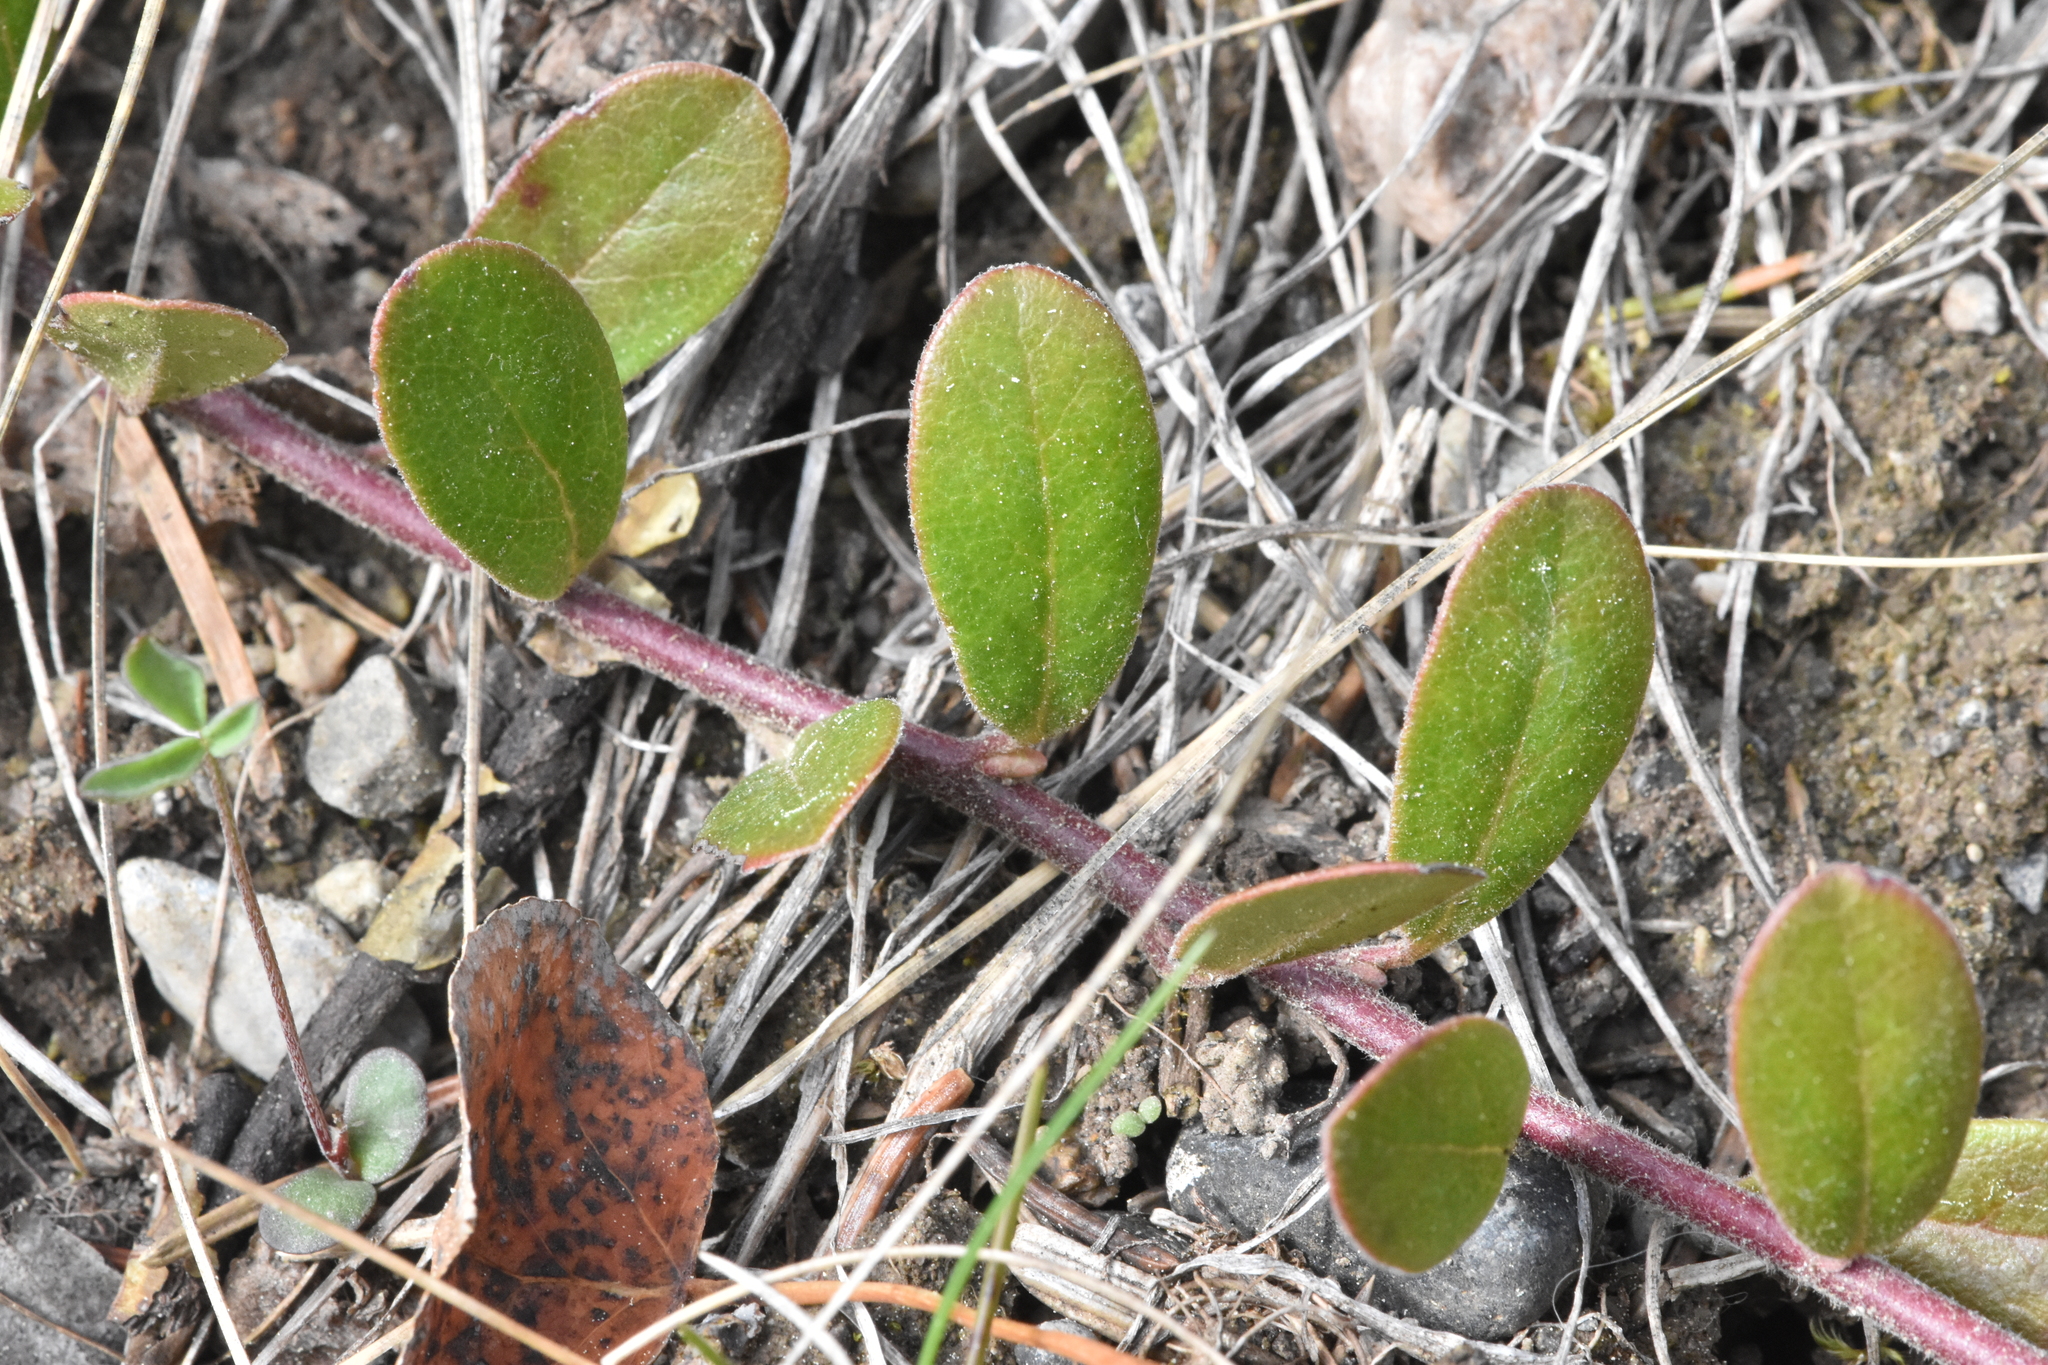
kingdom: Plantae
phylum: Tracheophyta
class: Magnoliopsida
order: Ericales
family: Ericaceae
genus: Arctostaphylos
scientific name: Arctostaphylos uva-ursi
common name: Bearberry
